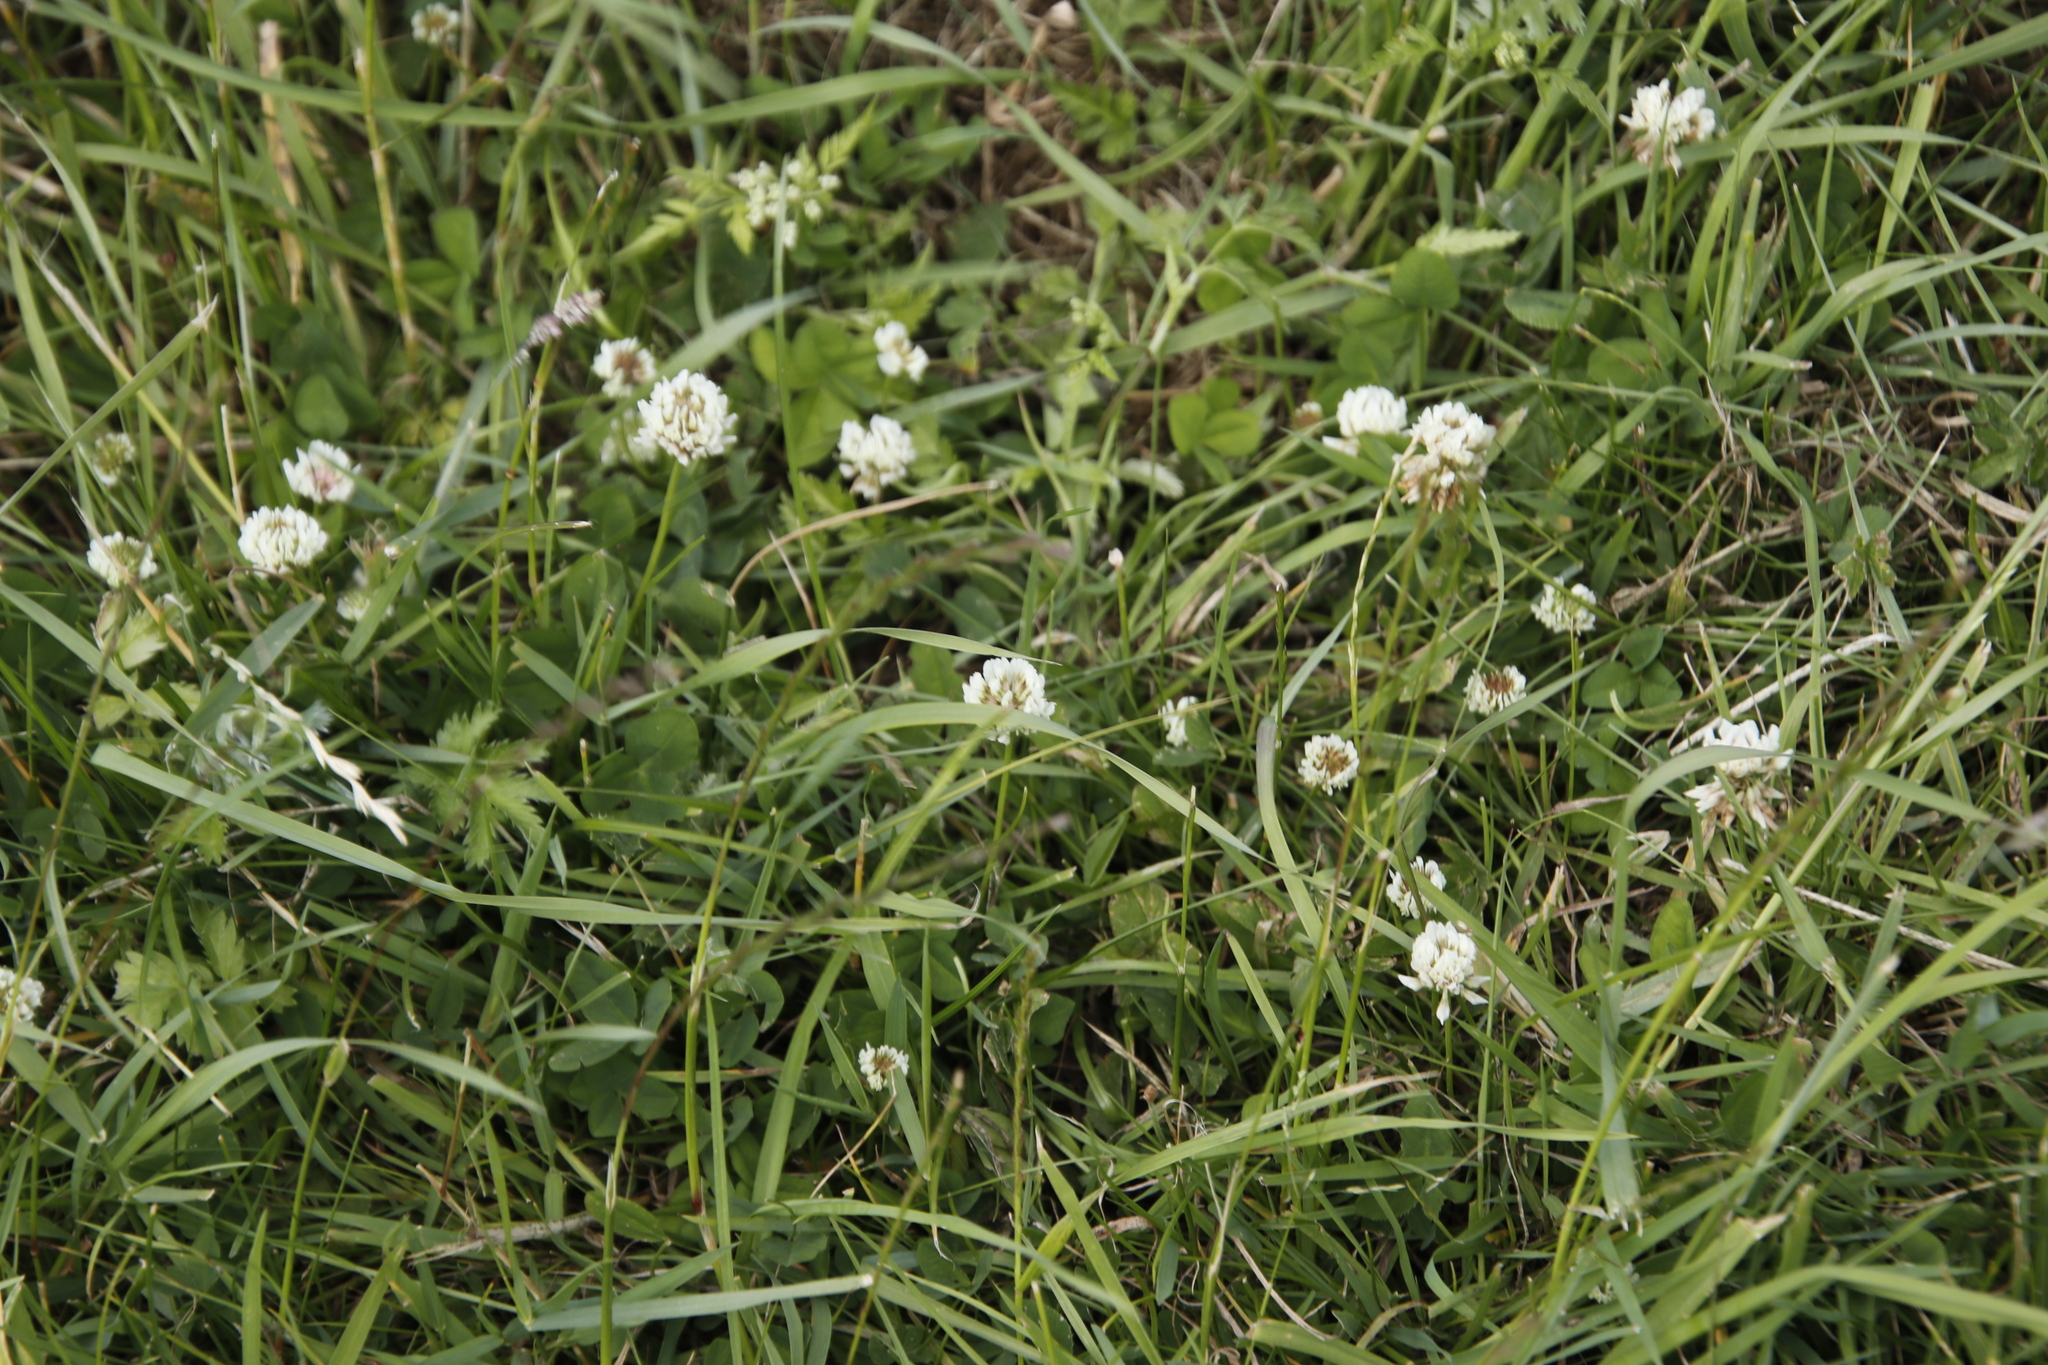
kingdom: Plantae
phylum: Tracheophyta
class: Magnoliopsida
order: Fabales
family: Fabaceae
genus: Trifolium
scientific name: Trifolium repens
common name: White clover
